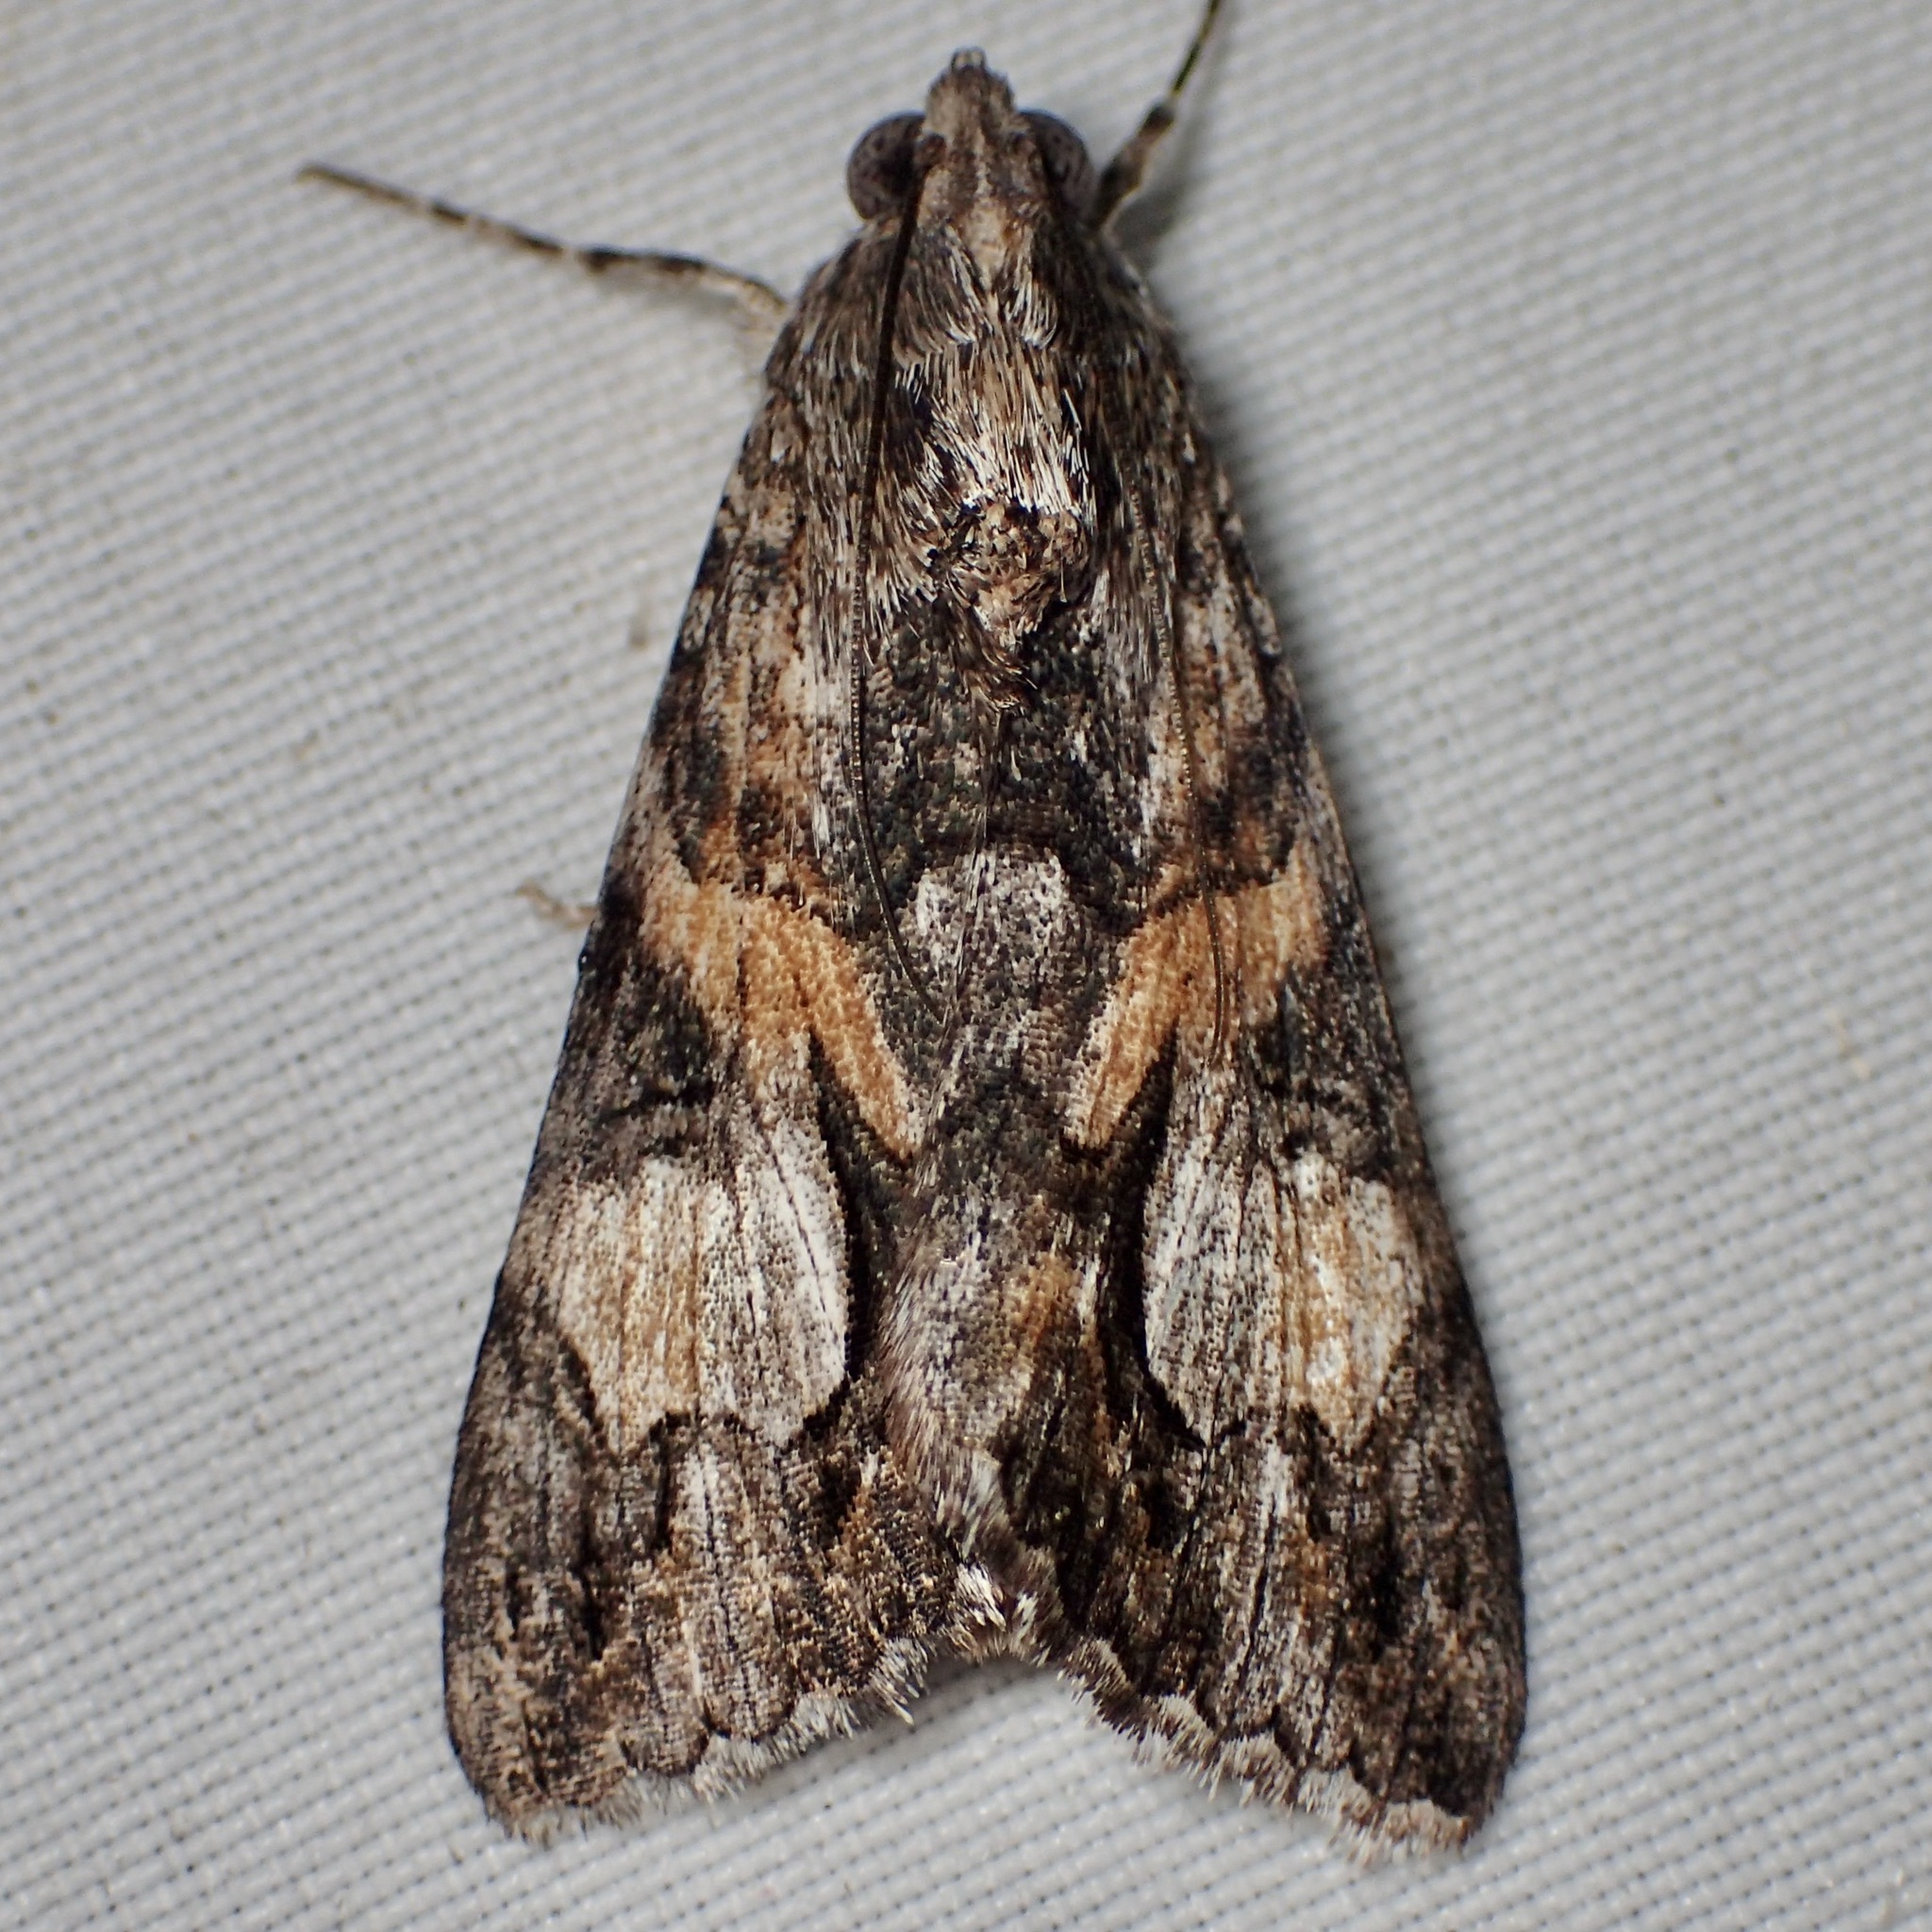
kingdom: Animalia
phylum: Arthropoda
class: Insecta
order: Lepidoptera
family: Erebidae
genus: Melipotis
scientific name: Melipotis jucunda
